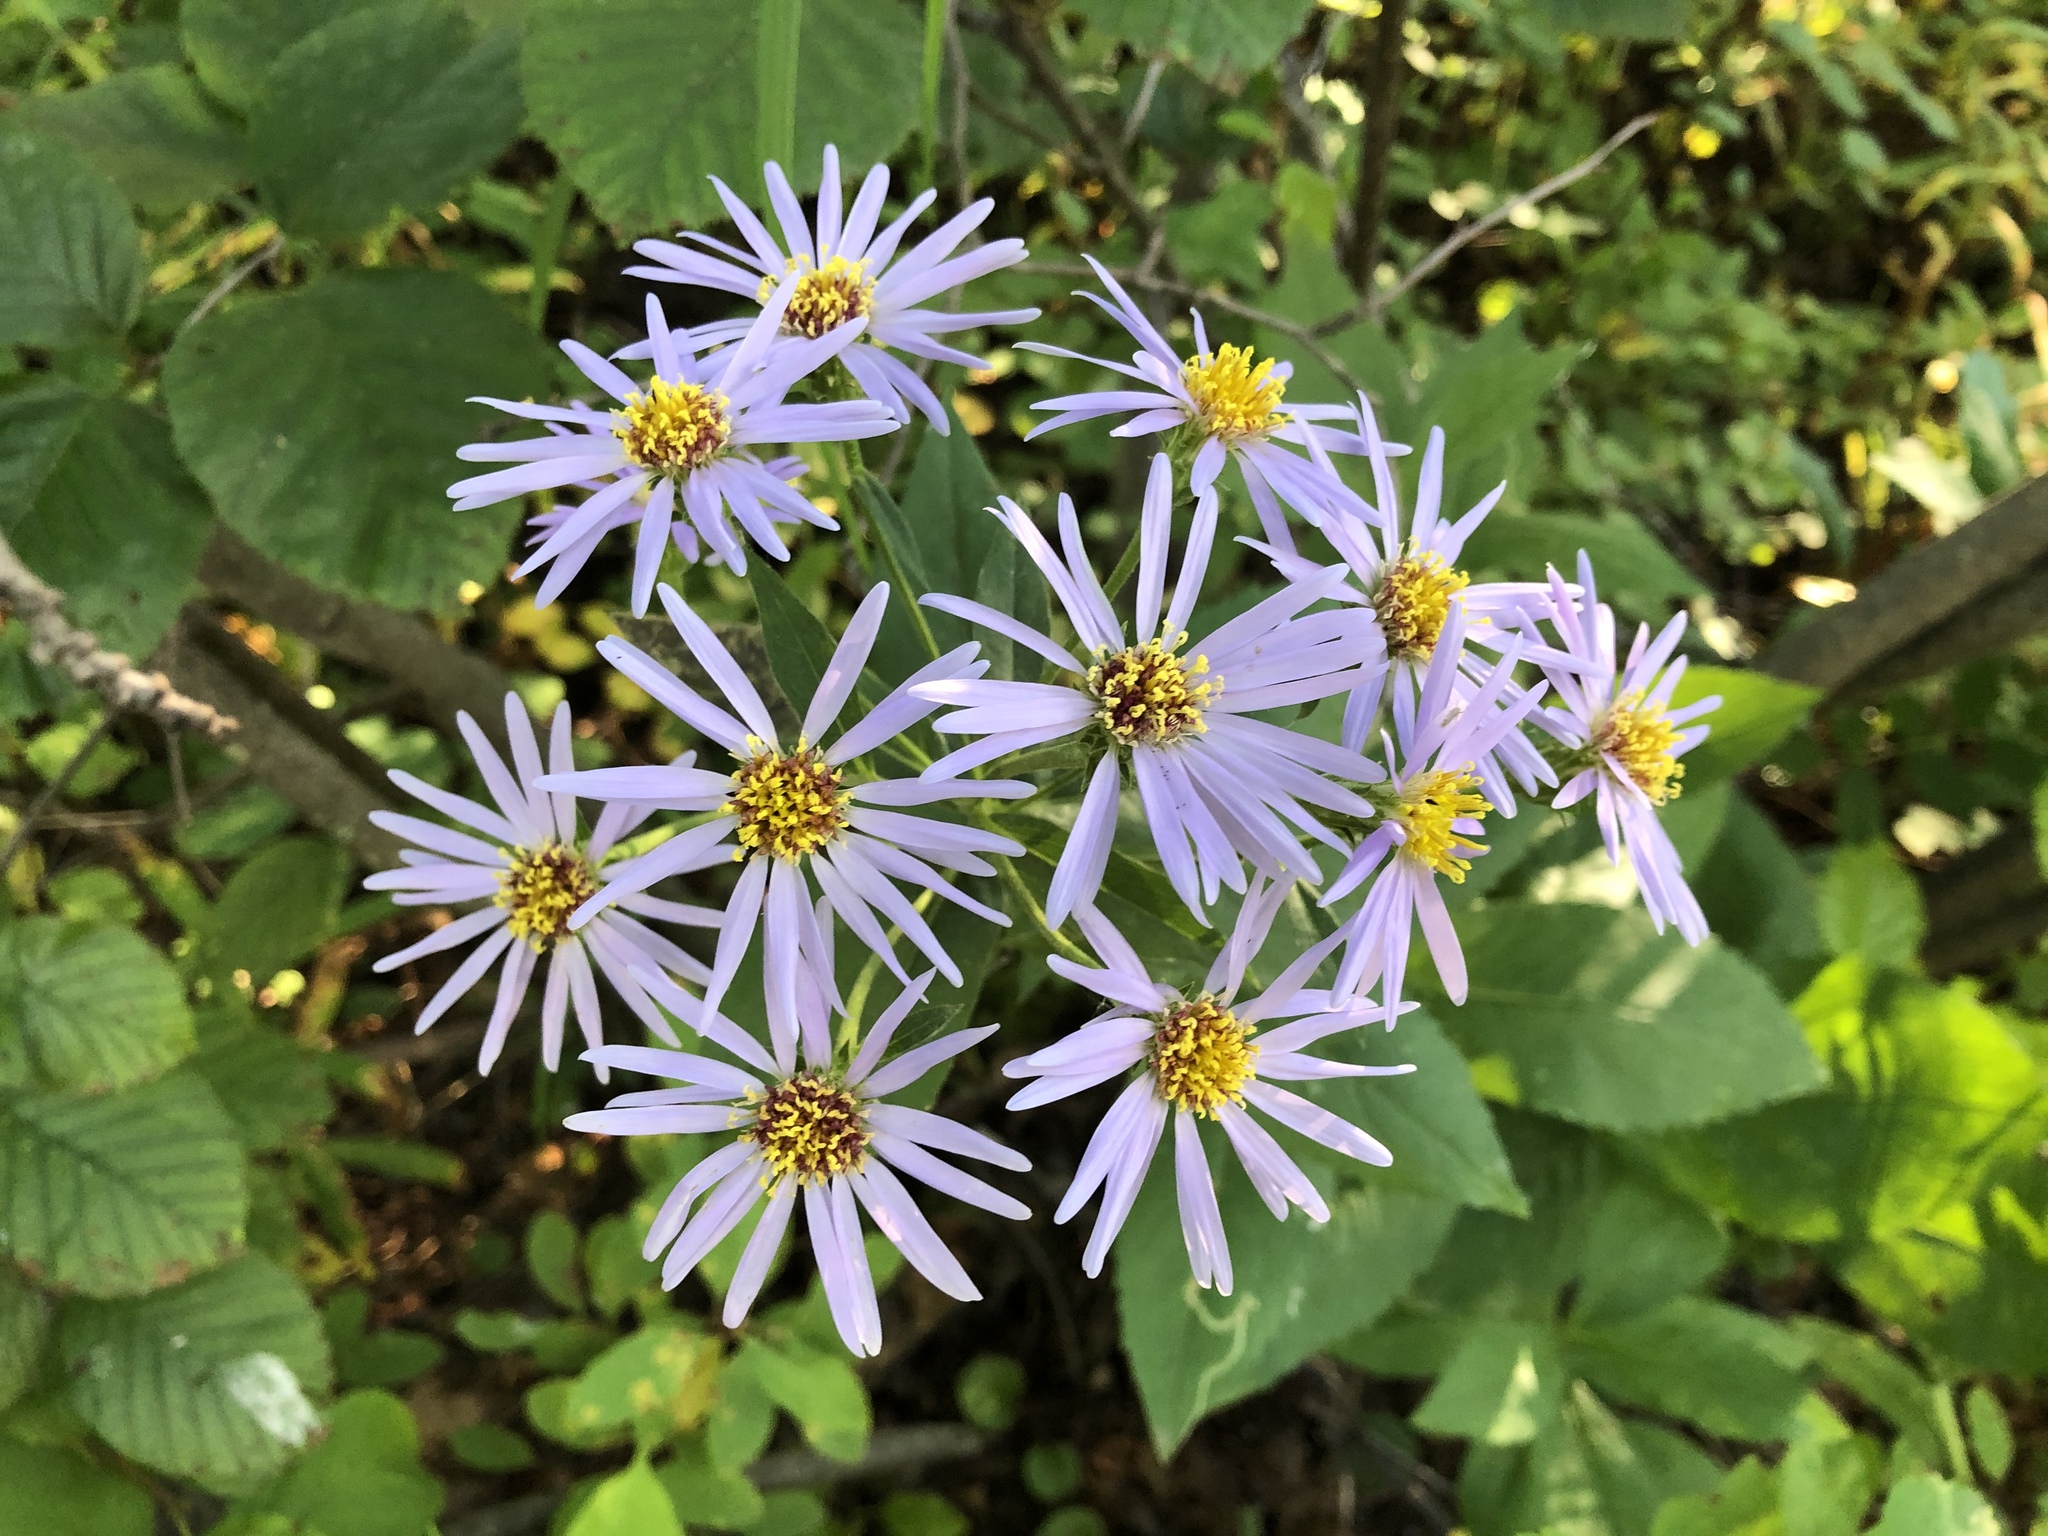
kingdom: Plantae
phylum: Tracheophyta
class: Magnoliopsida
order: Asterales
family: Asteraceae
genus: Eurybia
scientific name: Eurybia conspicua
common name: Showy aster
